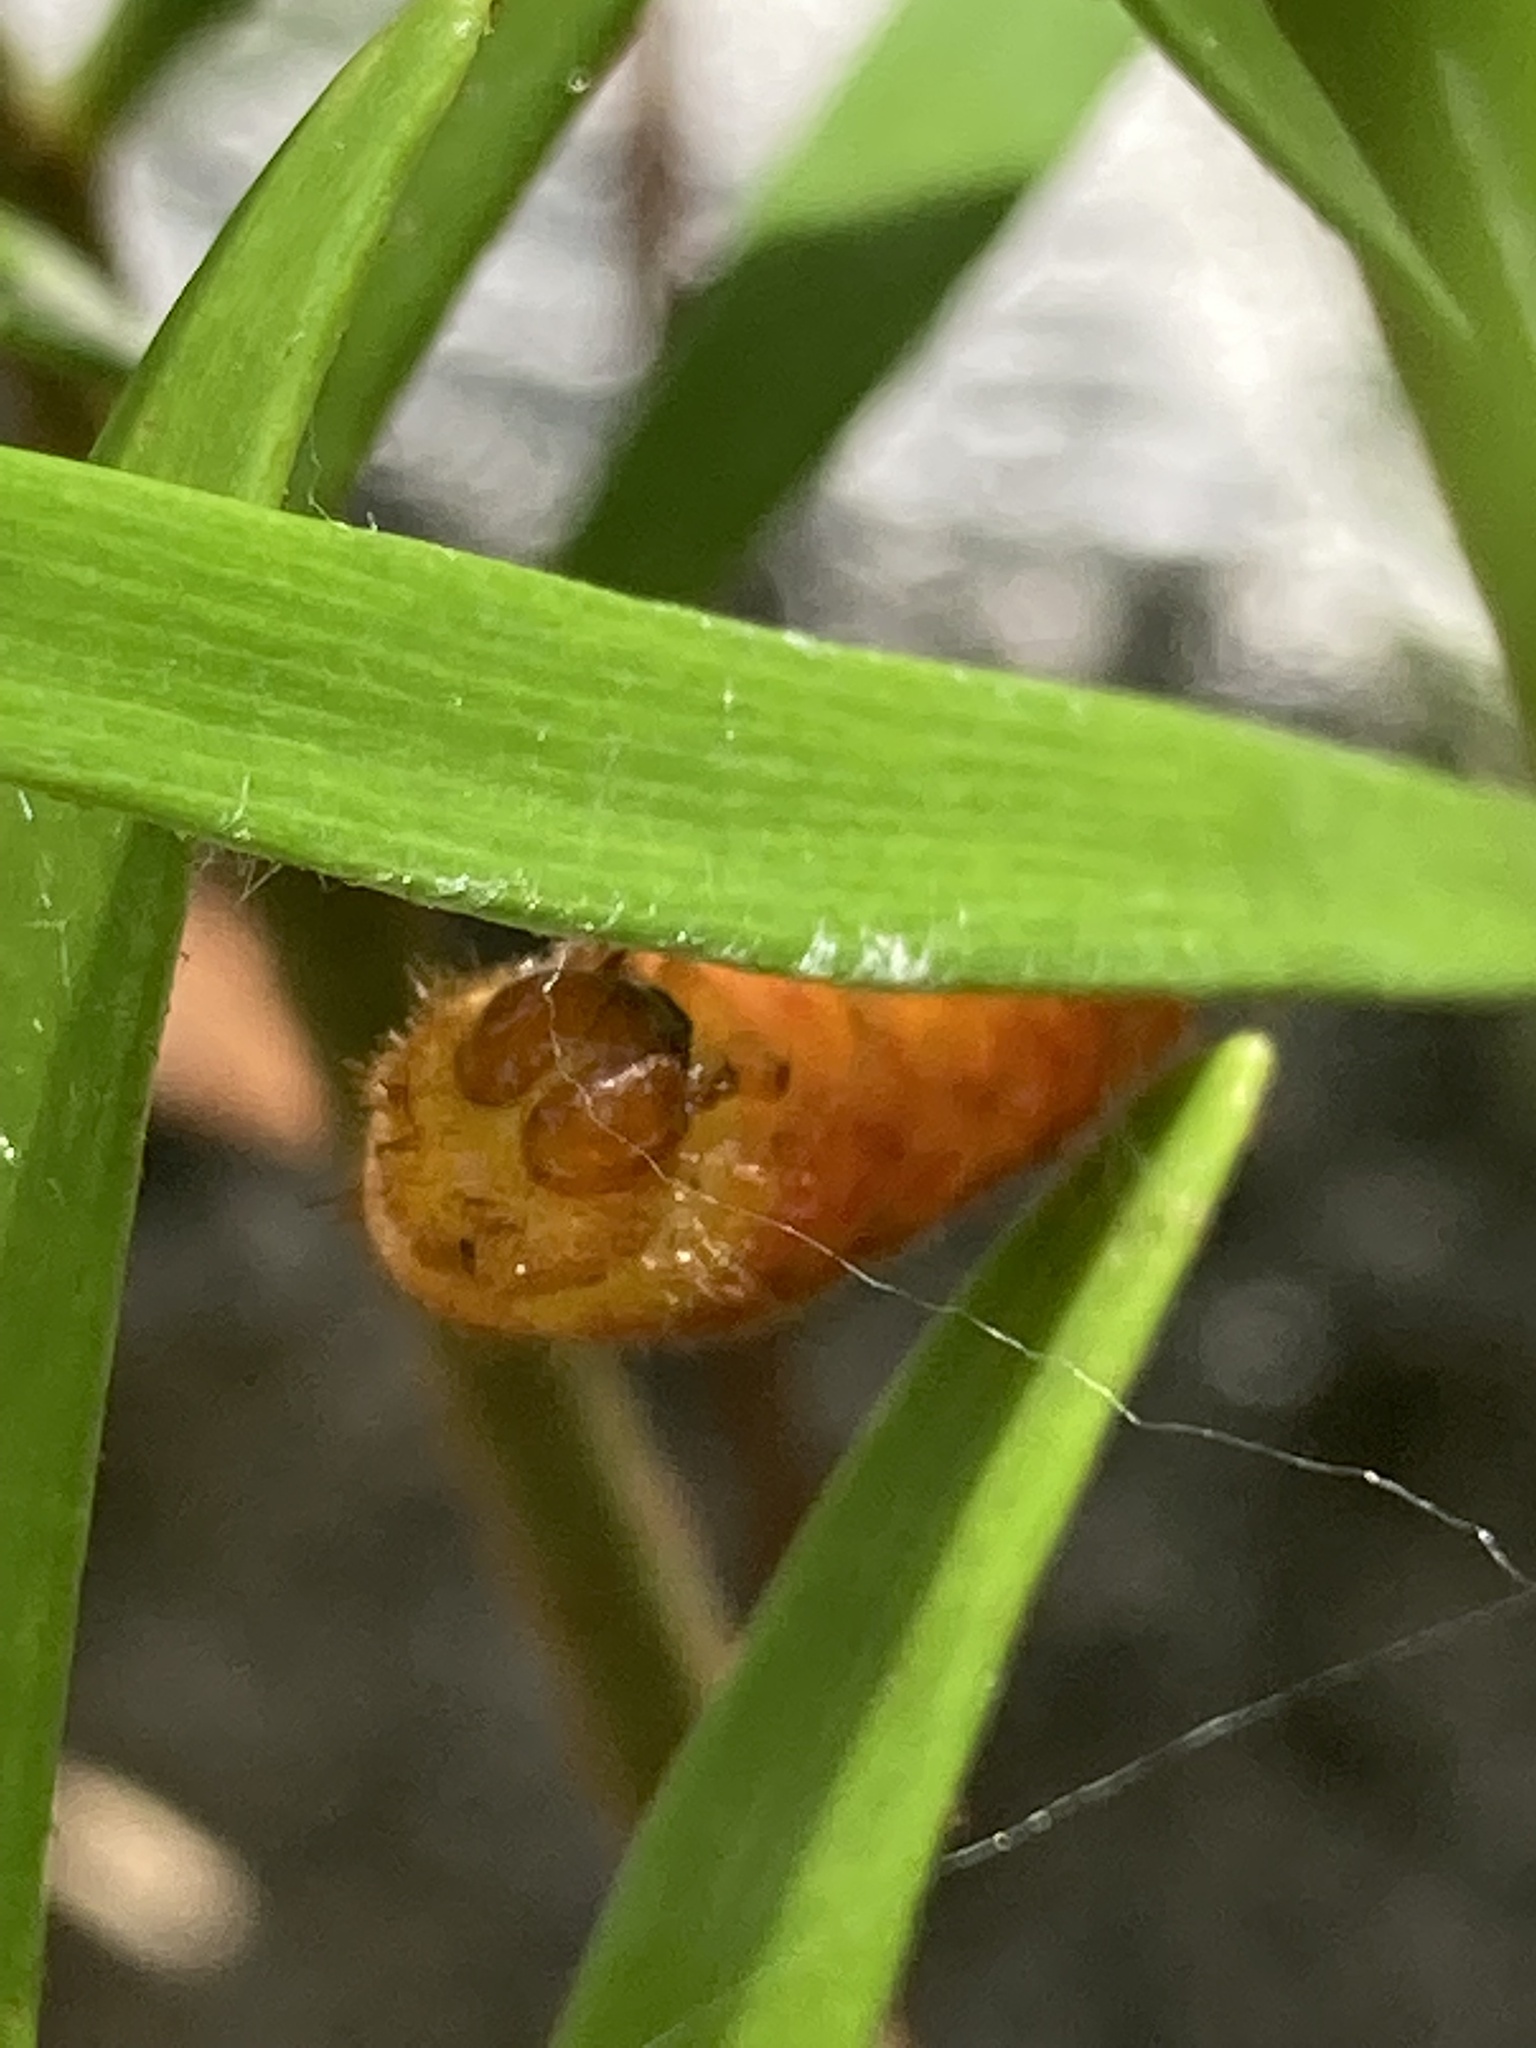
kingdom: Animalia
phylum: Arthropoda
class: Insecta
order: Lepidoptera
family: Lycaenidae
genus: Eumaeus
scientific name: Eumaeus atala
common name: Atala
